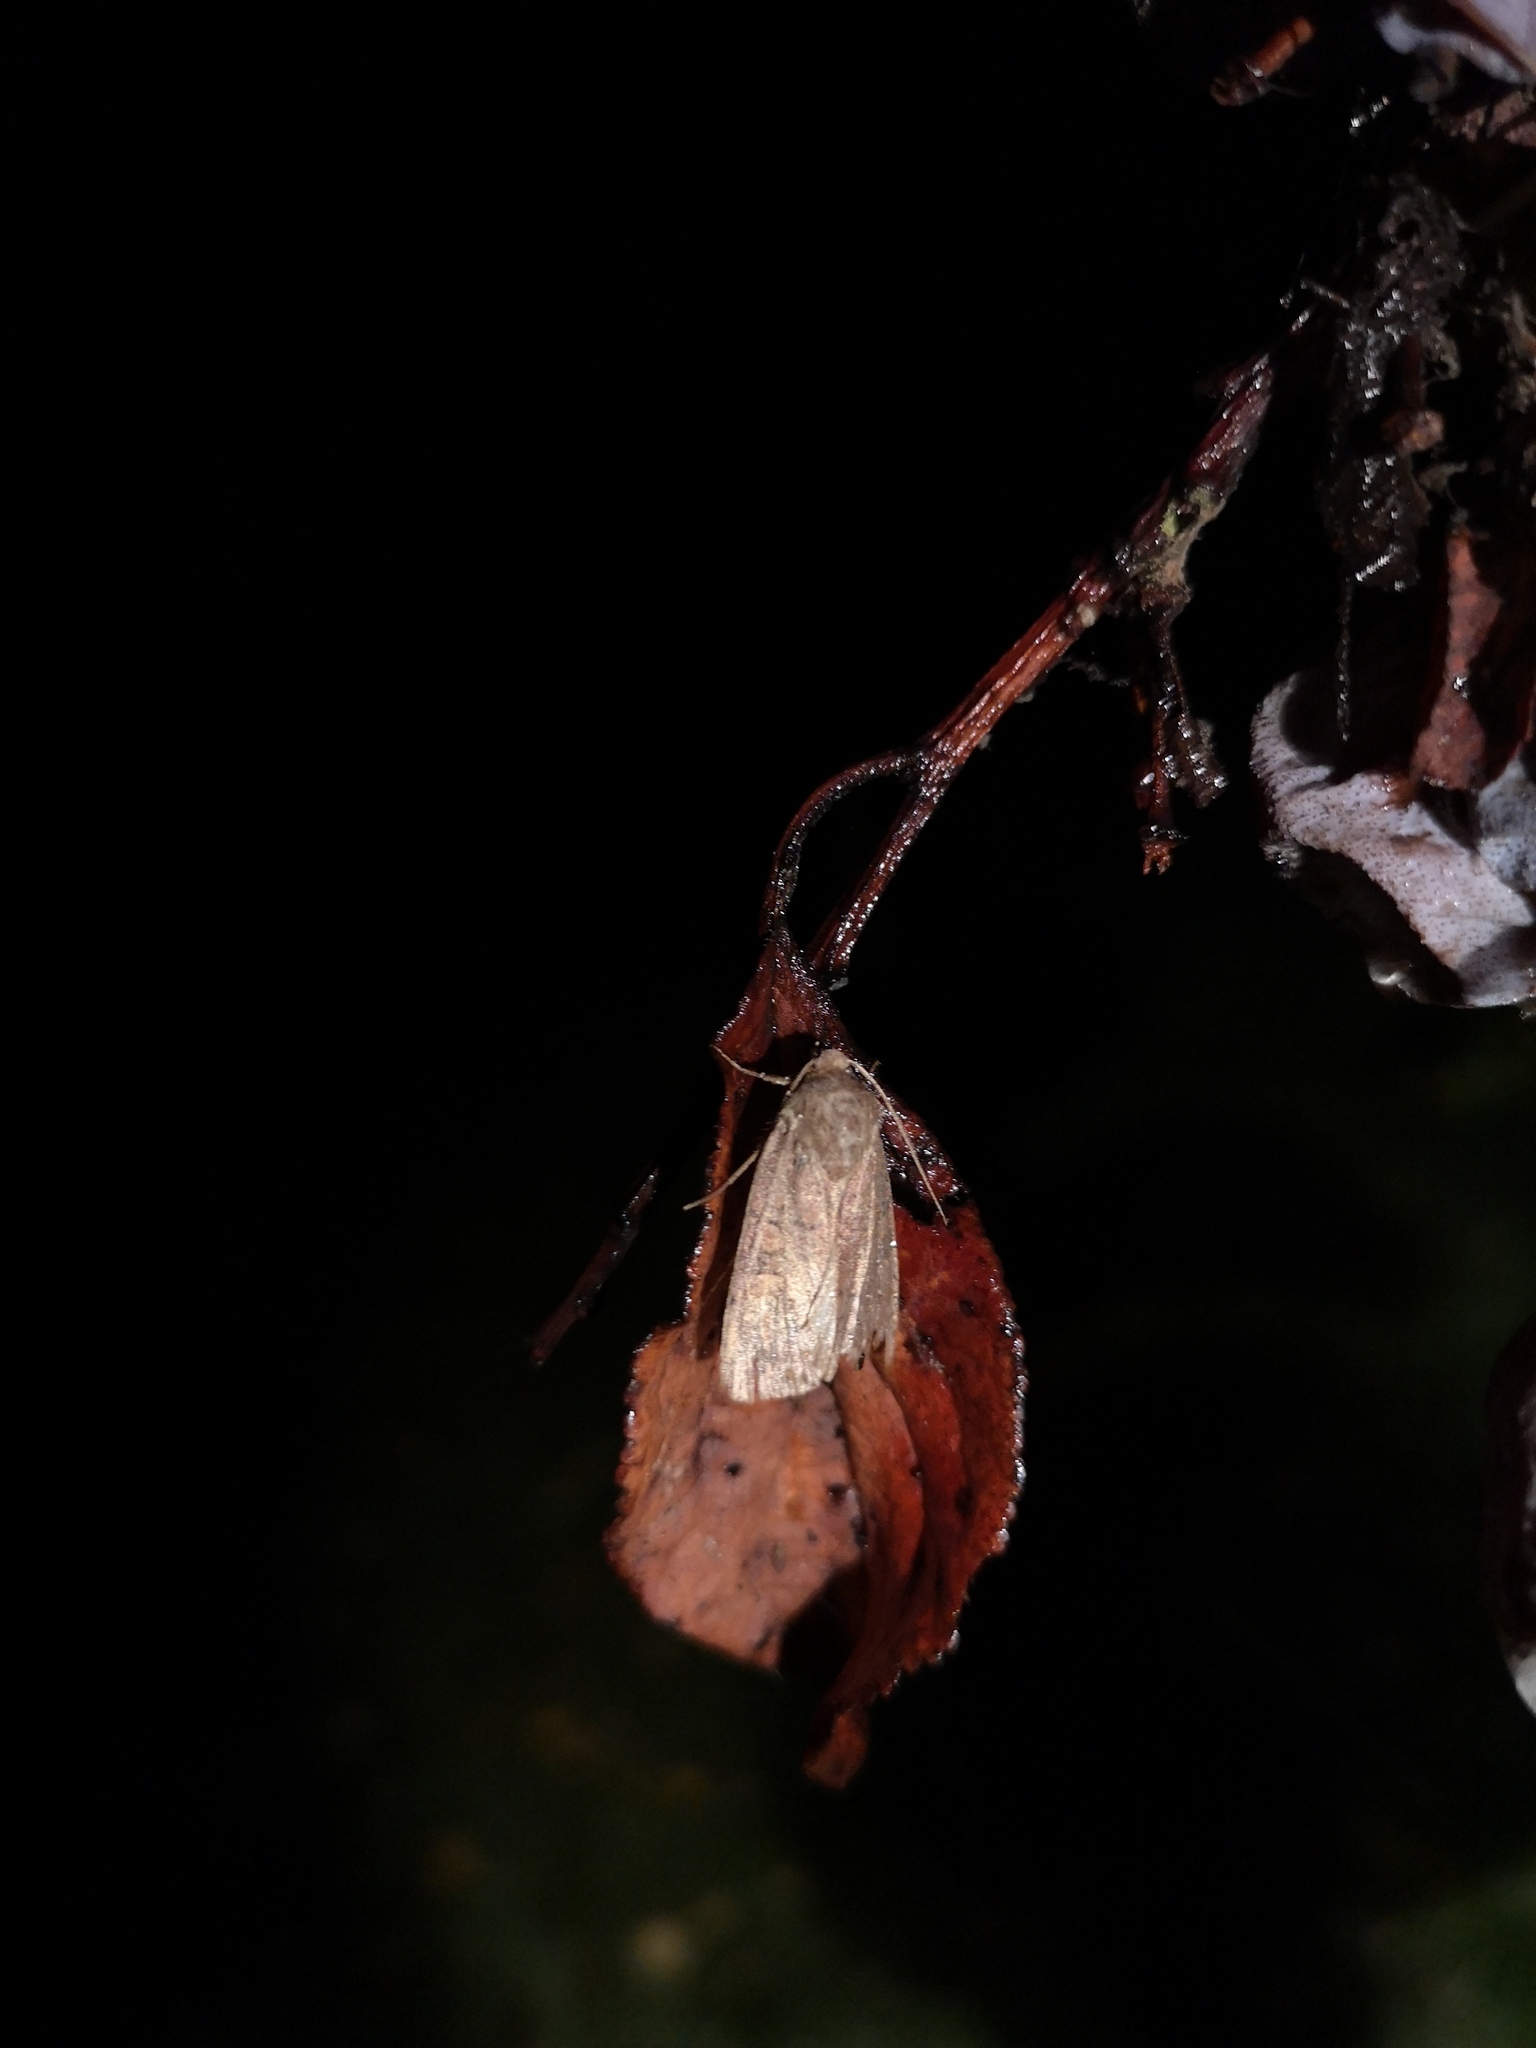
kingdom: Animalia
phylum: Arthropoda
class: Insecta
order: Lepidoptera
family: Noctuidae
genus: Xestia
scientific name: Xestia xanthographa
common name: Square-spot rustic
